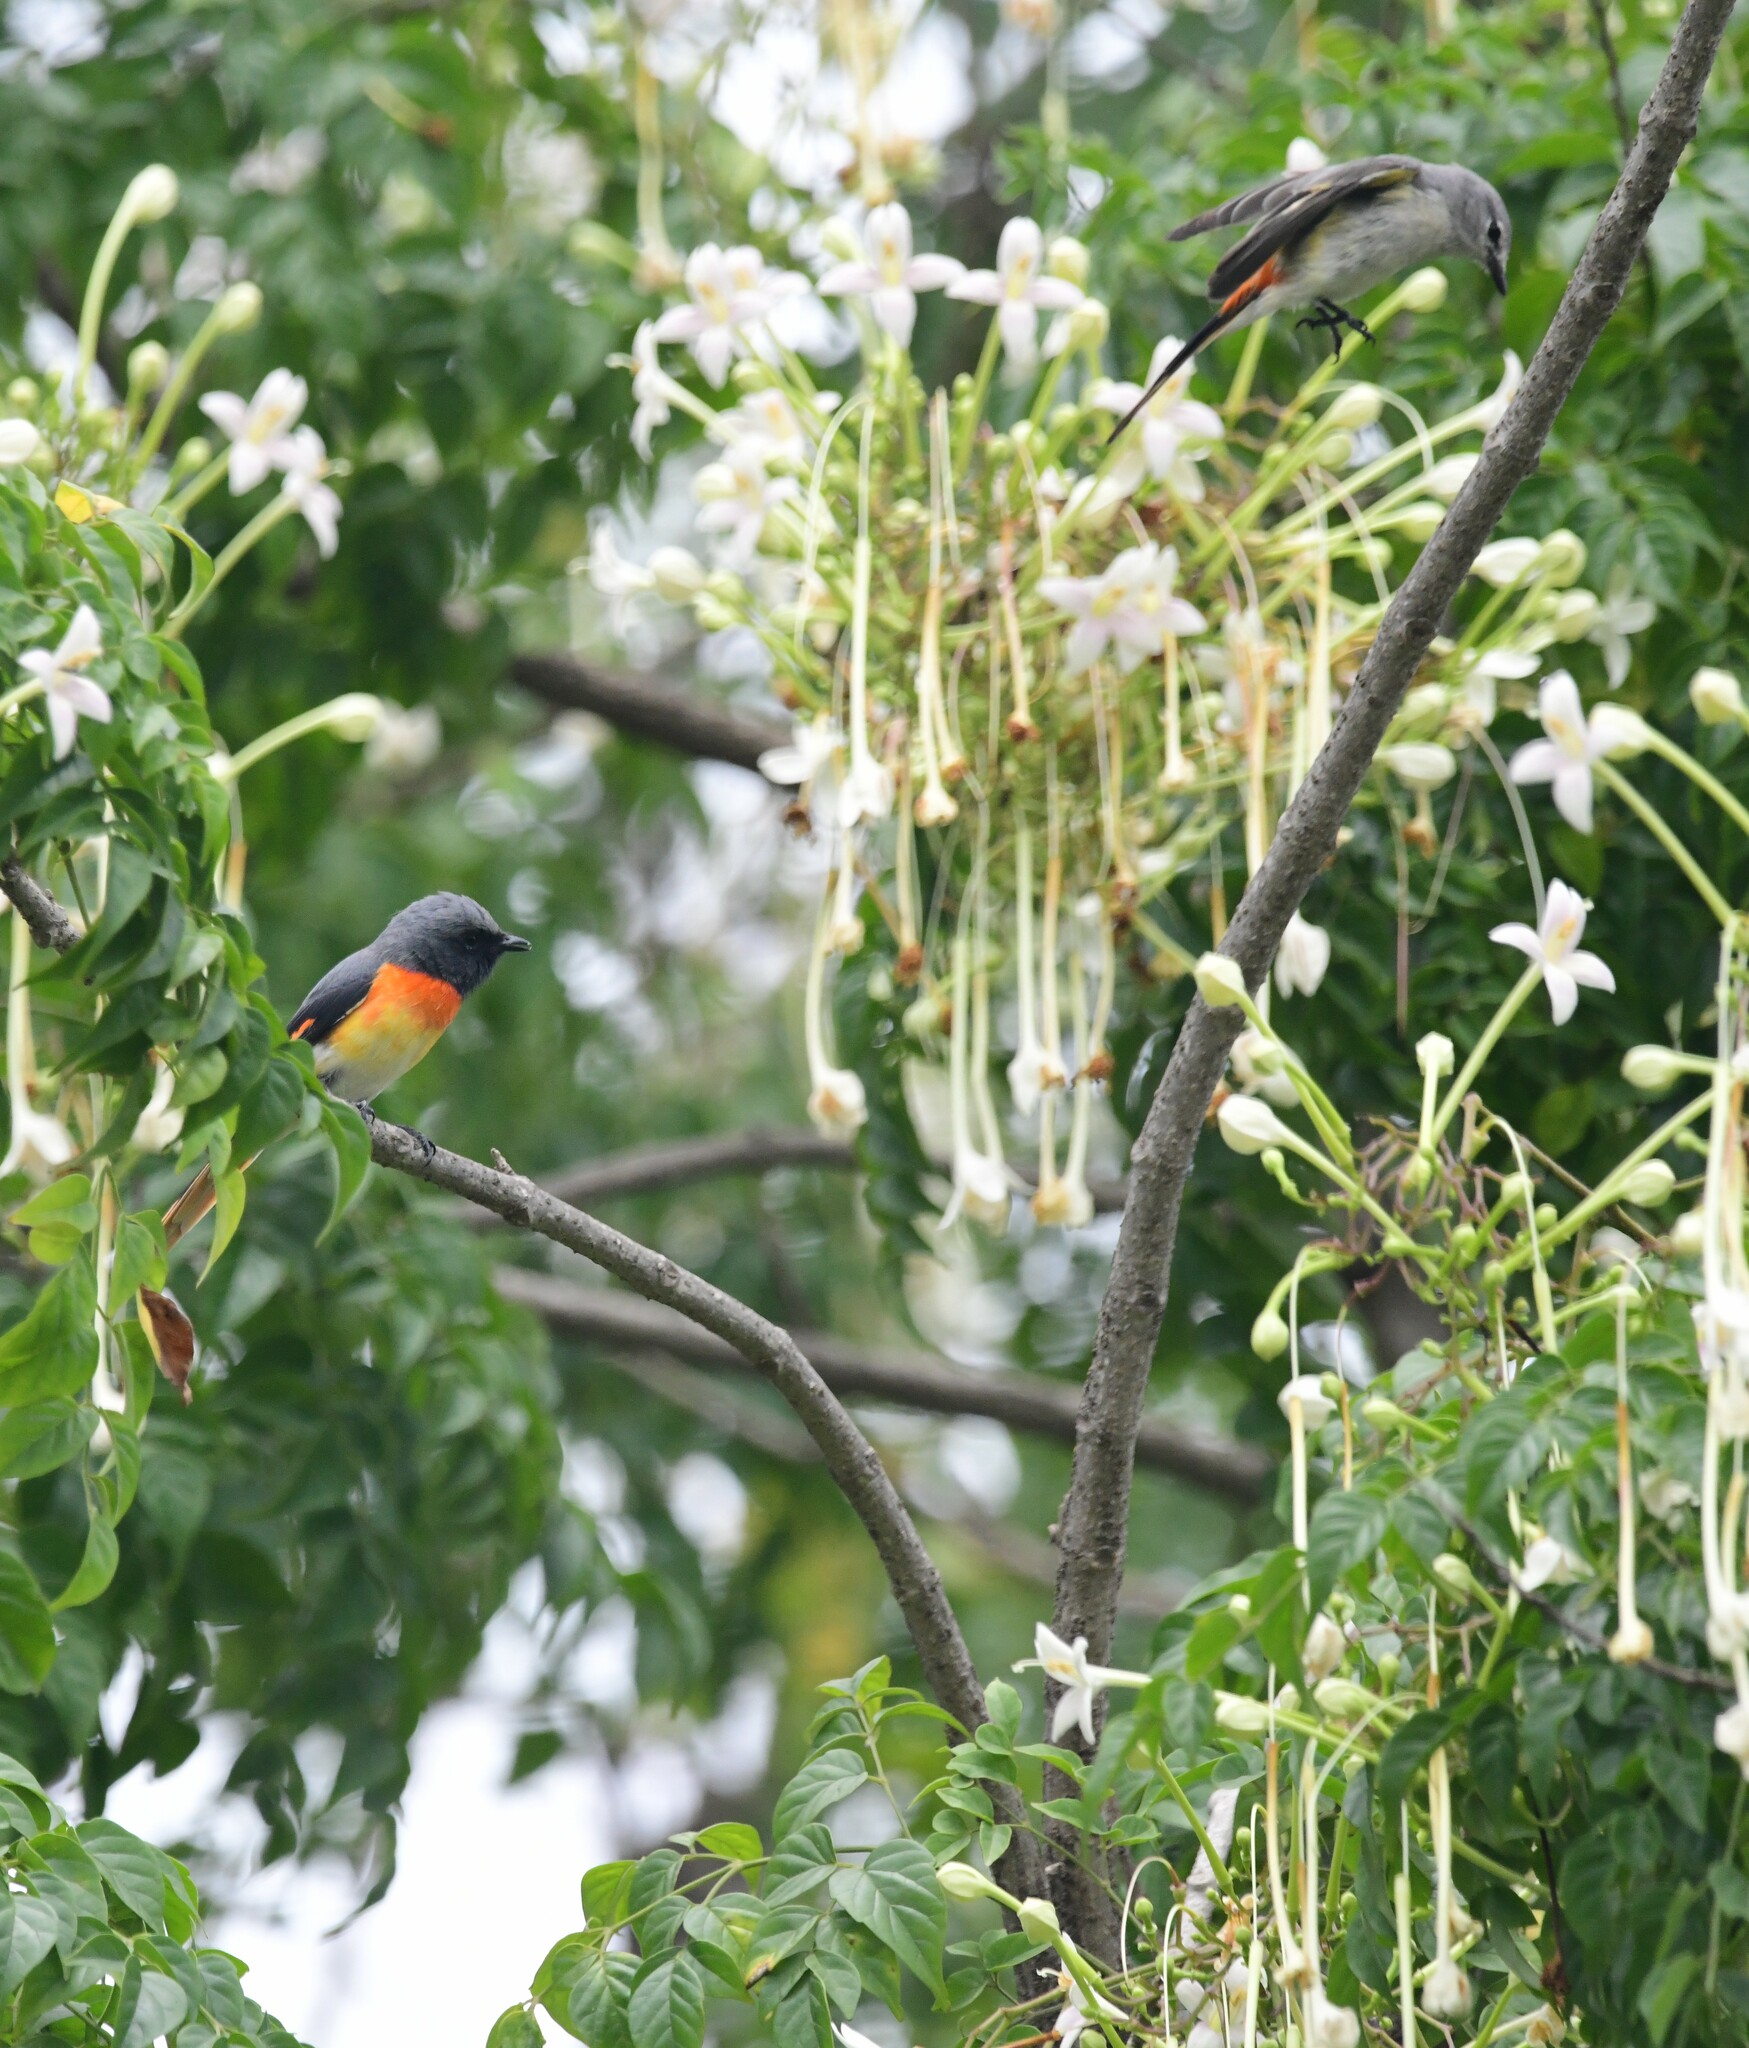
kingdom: Animalia
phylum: Chordata
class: Aves
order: Passeriformes
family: Campephagidae
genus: Pericrocotus
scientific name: Pericrocotus cinnamomeus
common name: Small minivet
